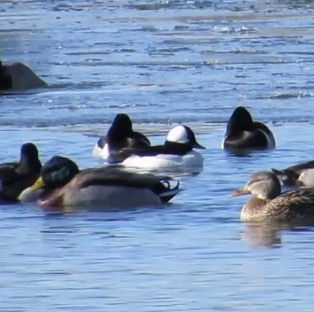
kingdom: Animalia
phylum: Chordata
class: Aves
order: Anseriformes
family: Anatidae
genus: Bucephala
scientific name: Bucephala albeola
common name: Bufflehead
